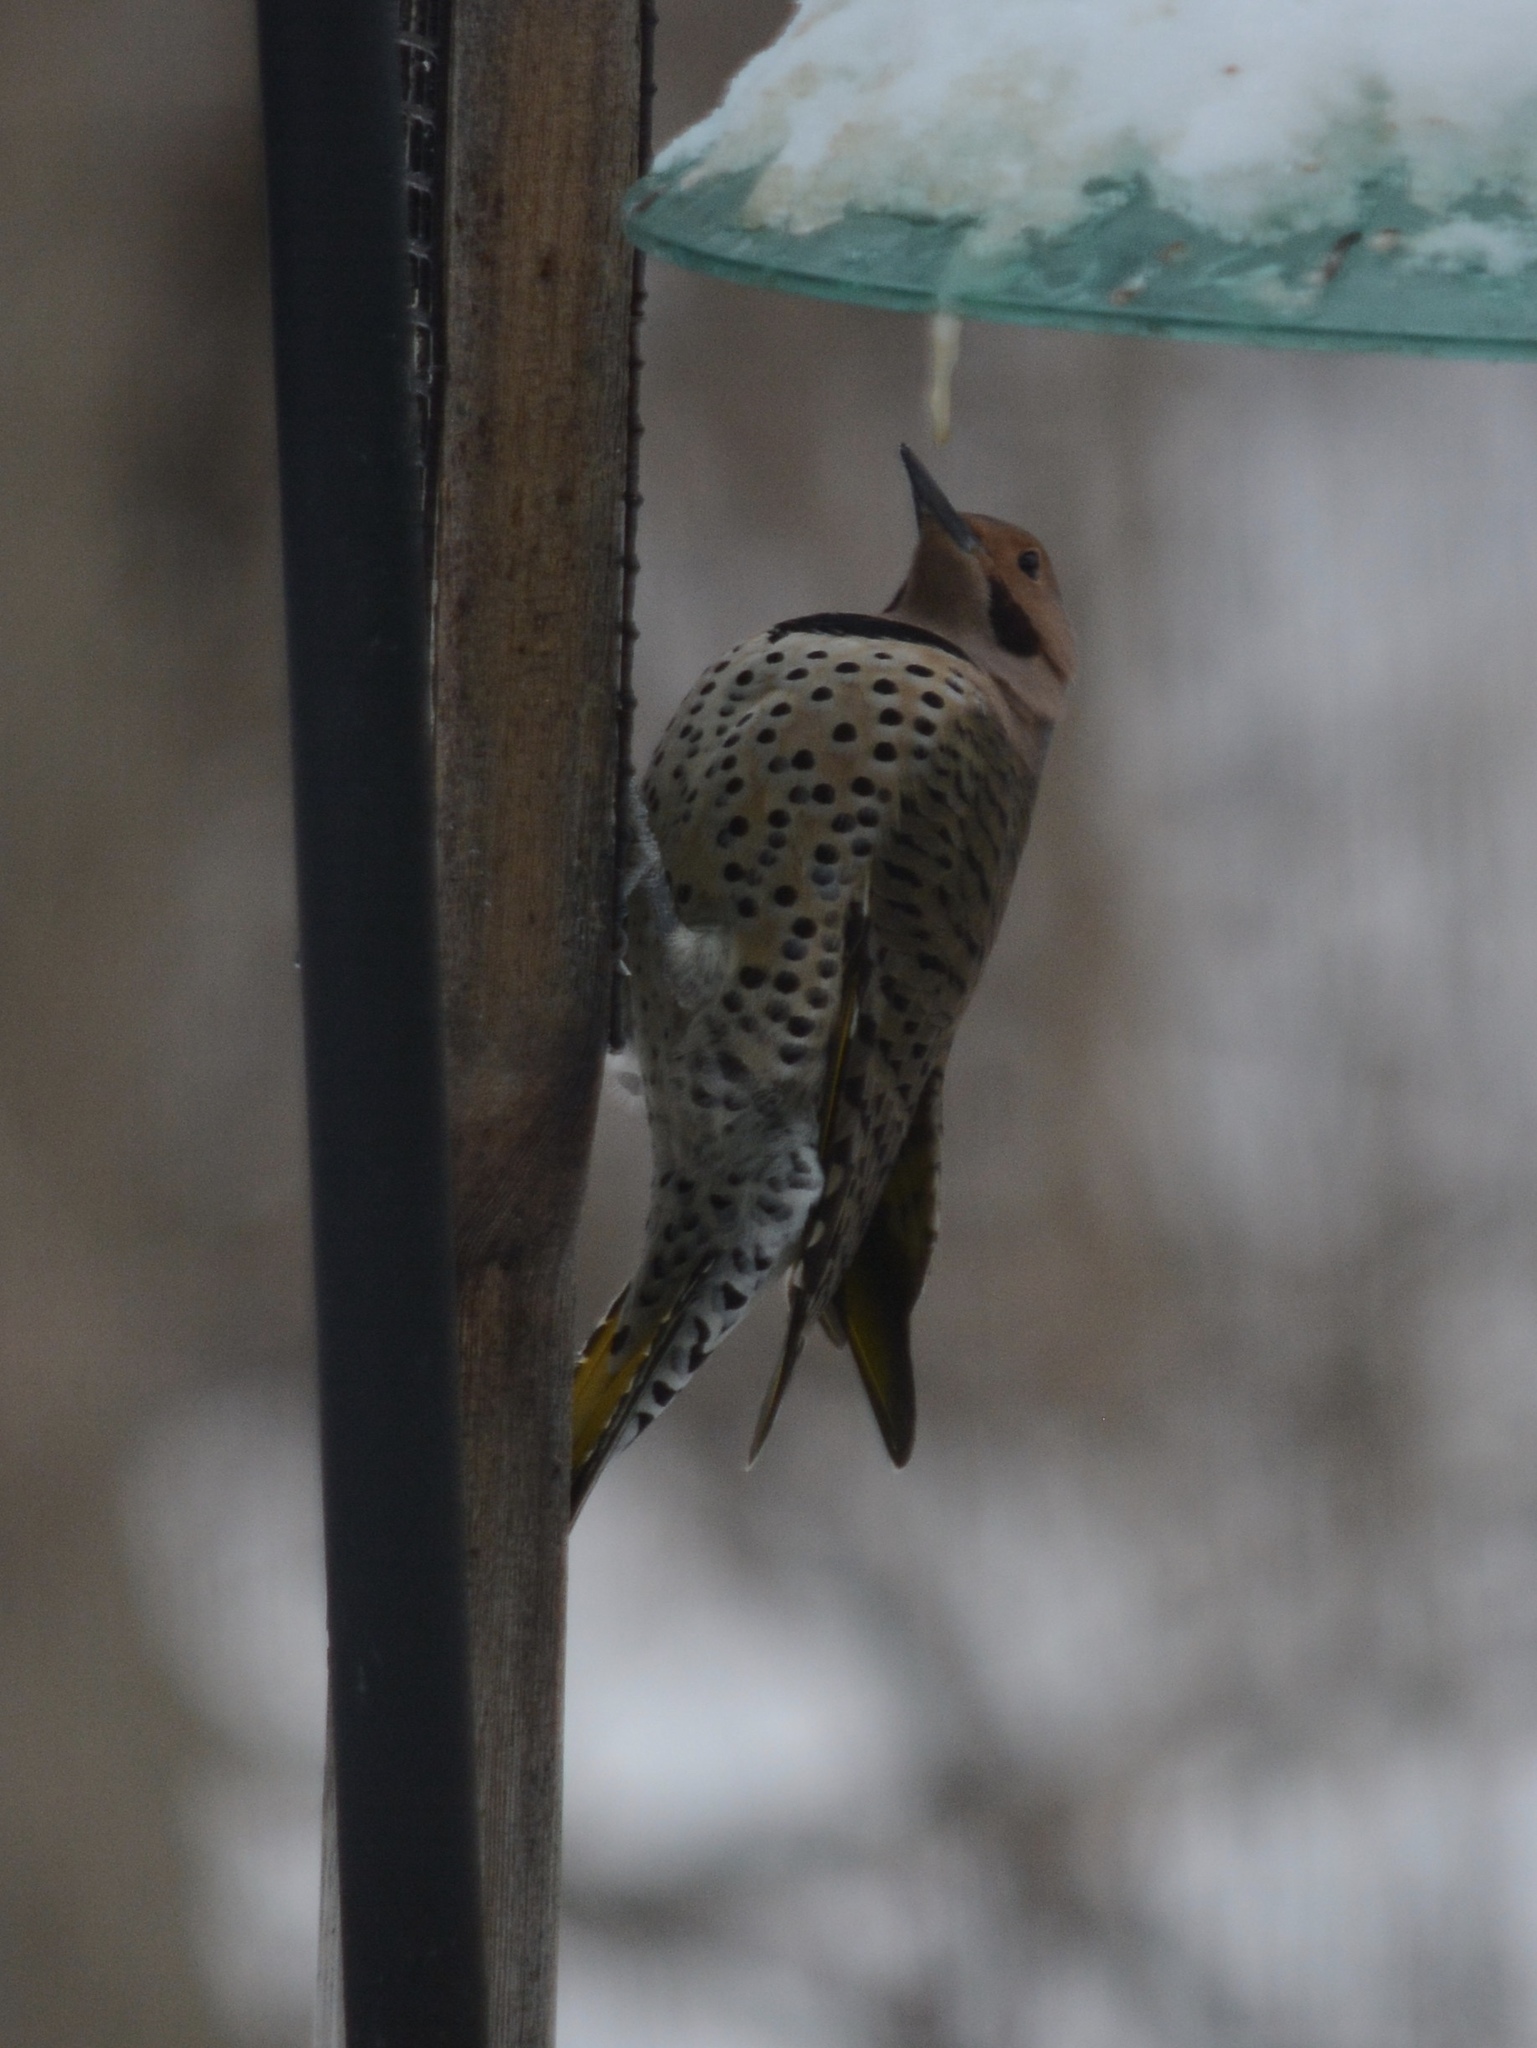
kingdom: Animalia
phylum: Chordata
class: Aves
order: Piciformes
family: Picidae
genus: Colaptes
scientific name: Colaptes auratus
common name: Northern flicker
